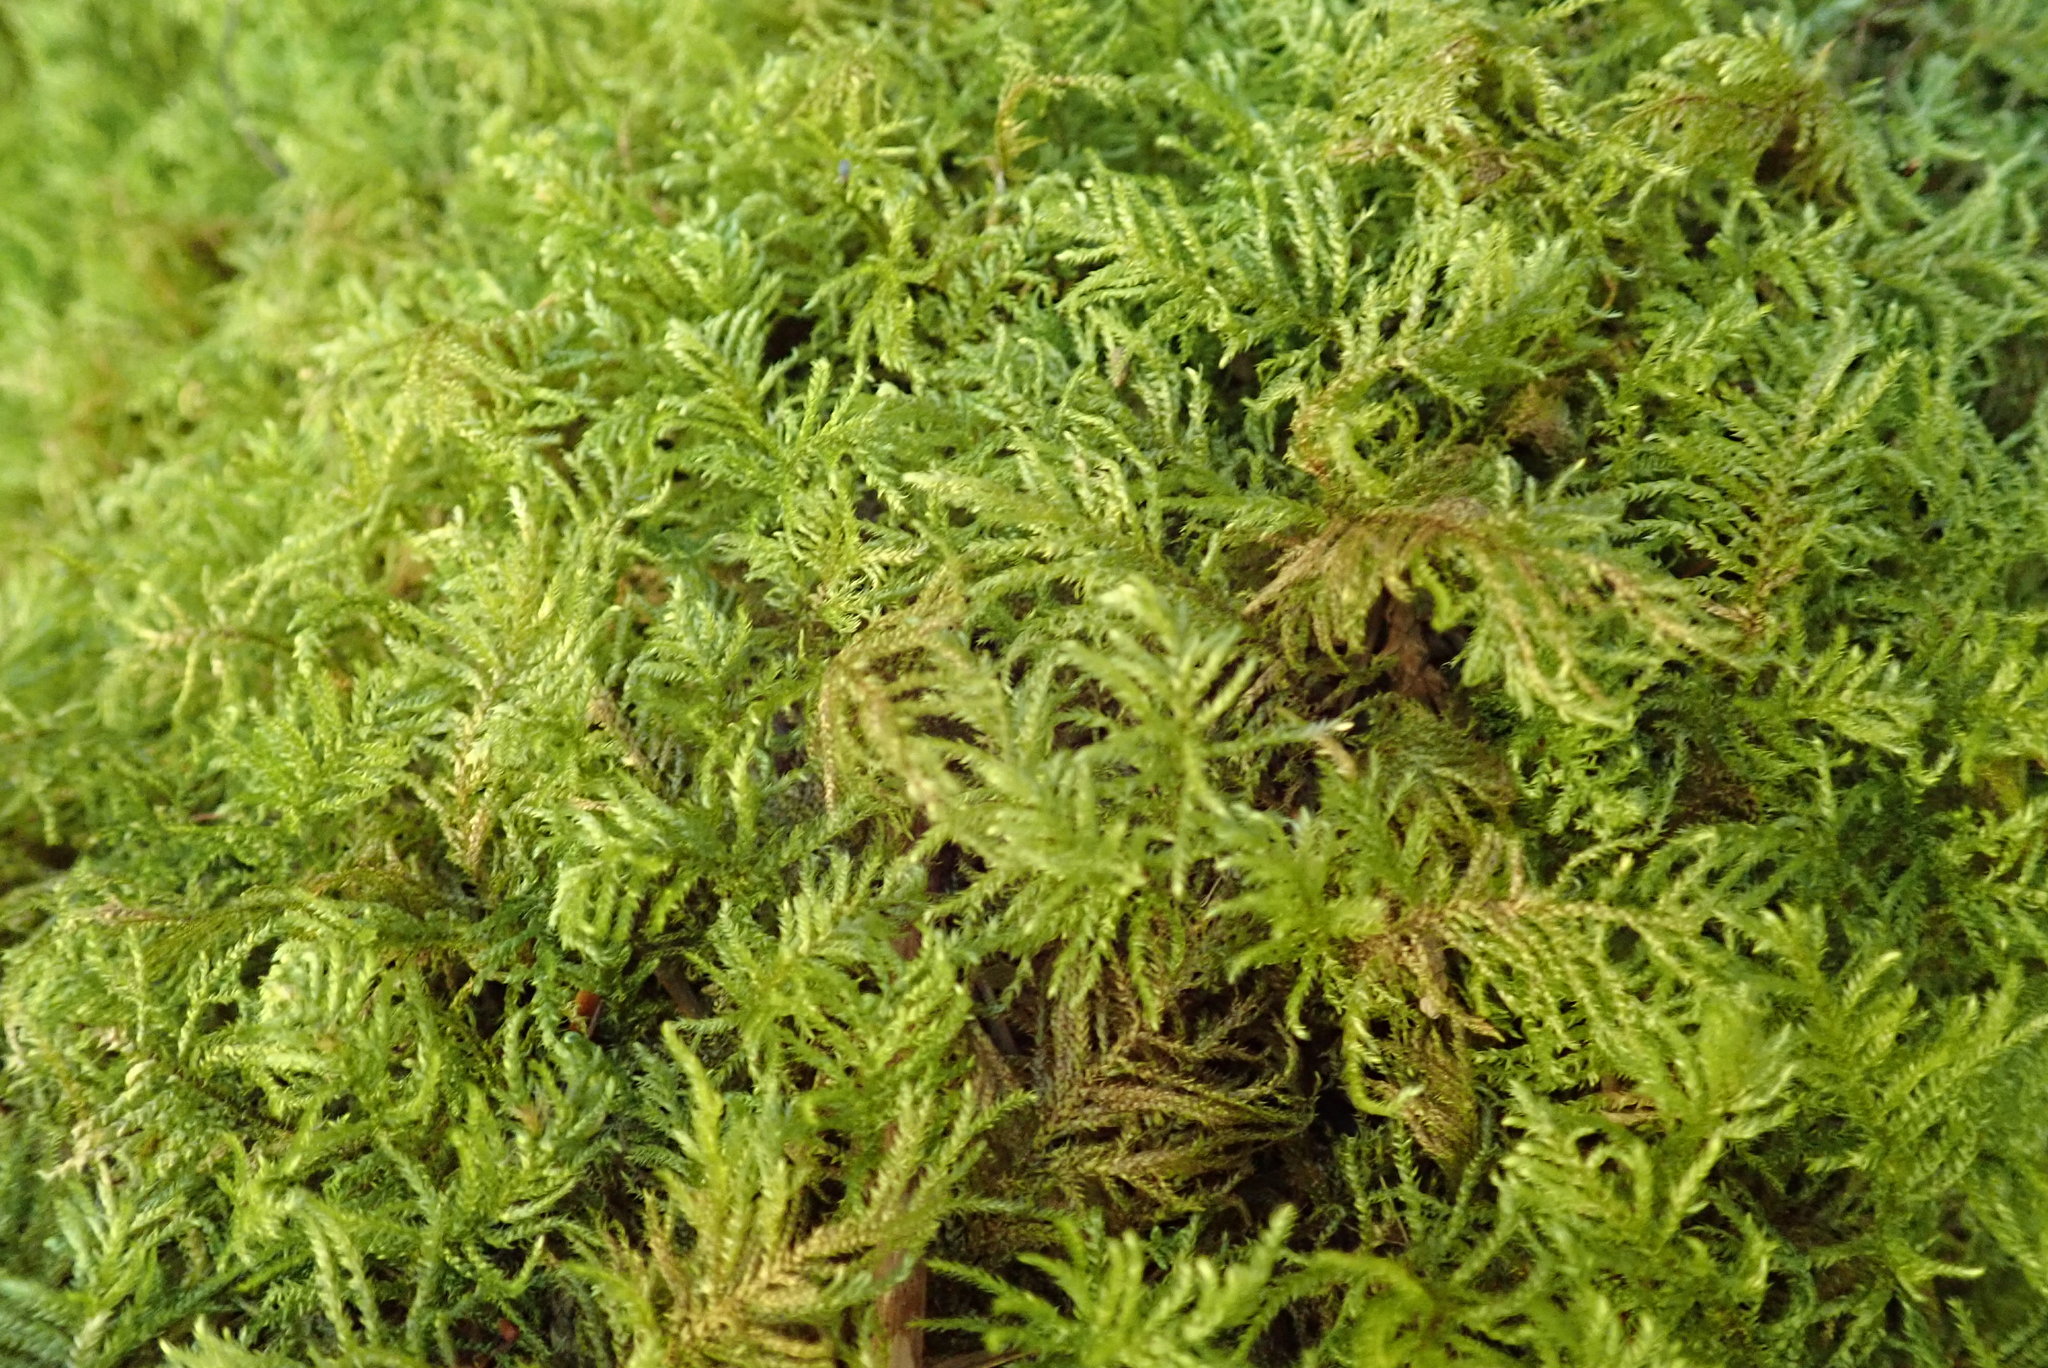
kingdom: Plantae
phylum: Bryophyta
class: Bryopsida
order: Hypnales
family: Brachytheciaceae
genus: Kindbergia
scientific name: Kindbergia praelonga
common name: Slender beaked moss
